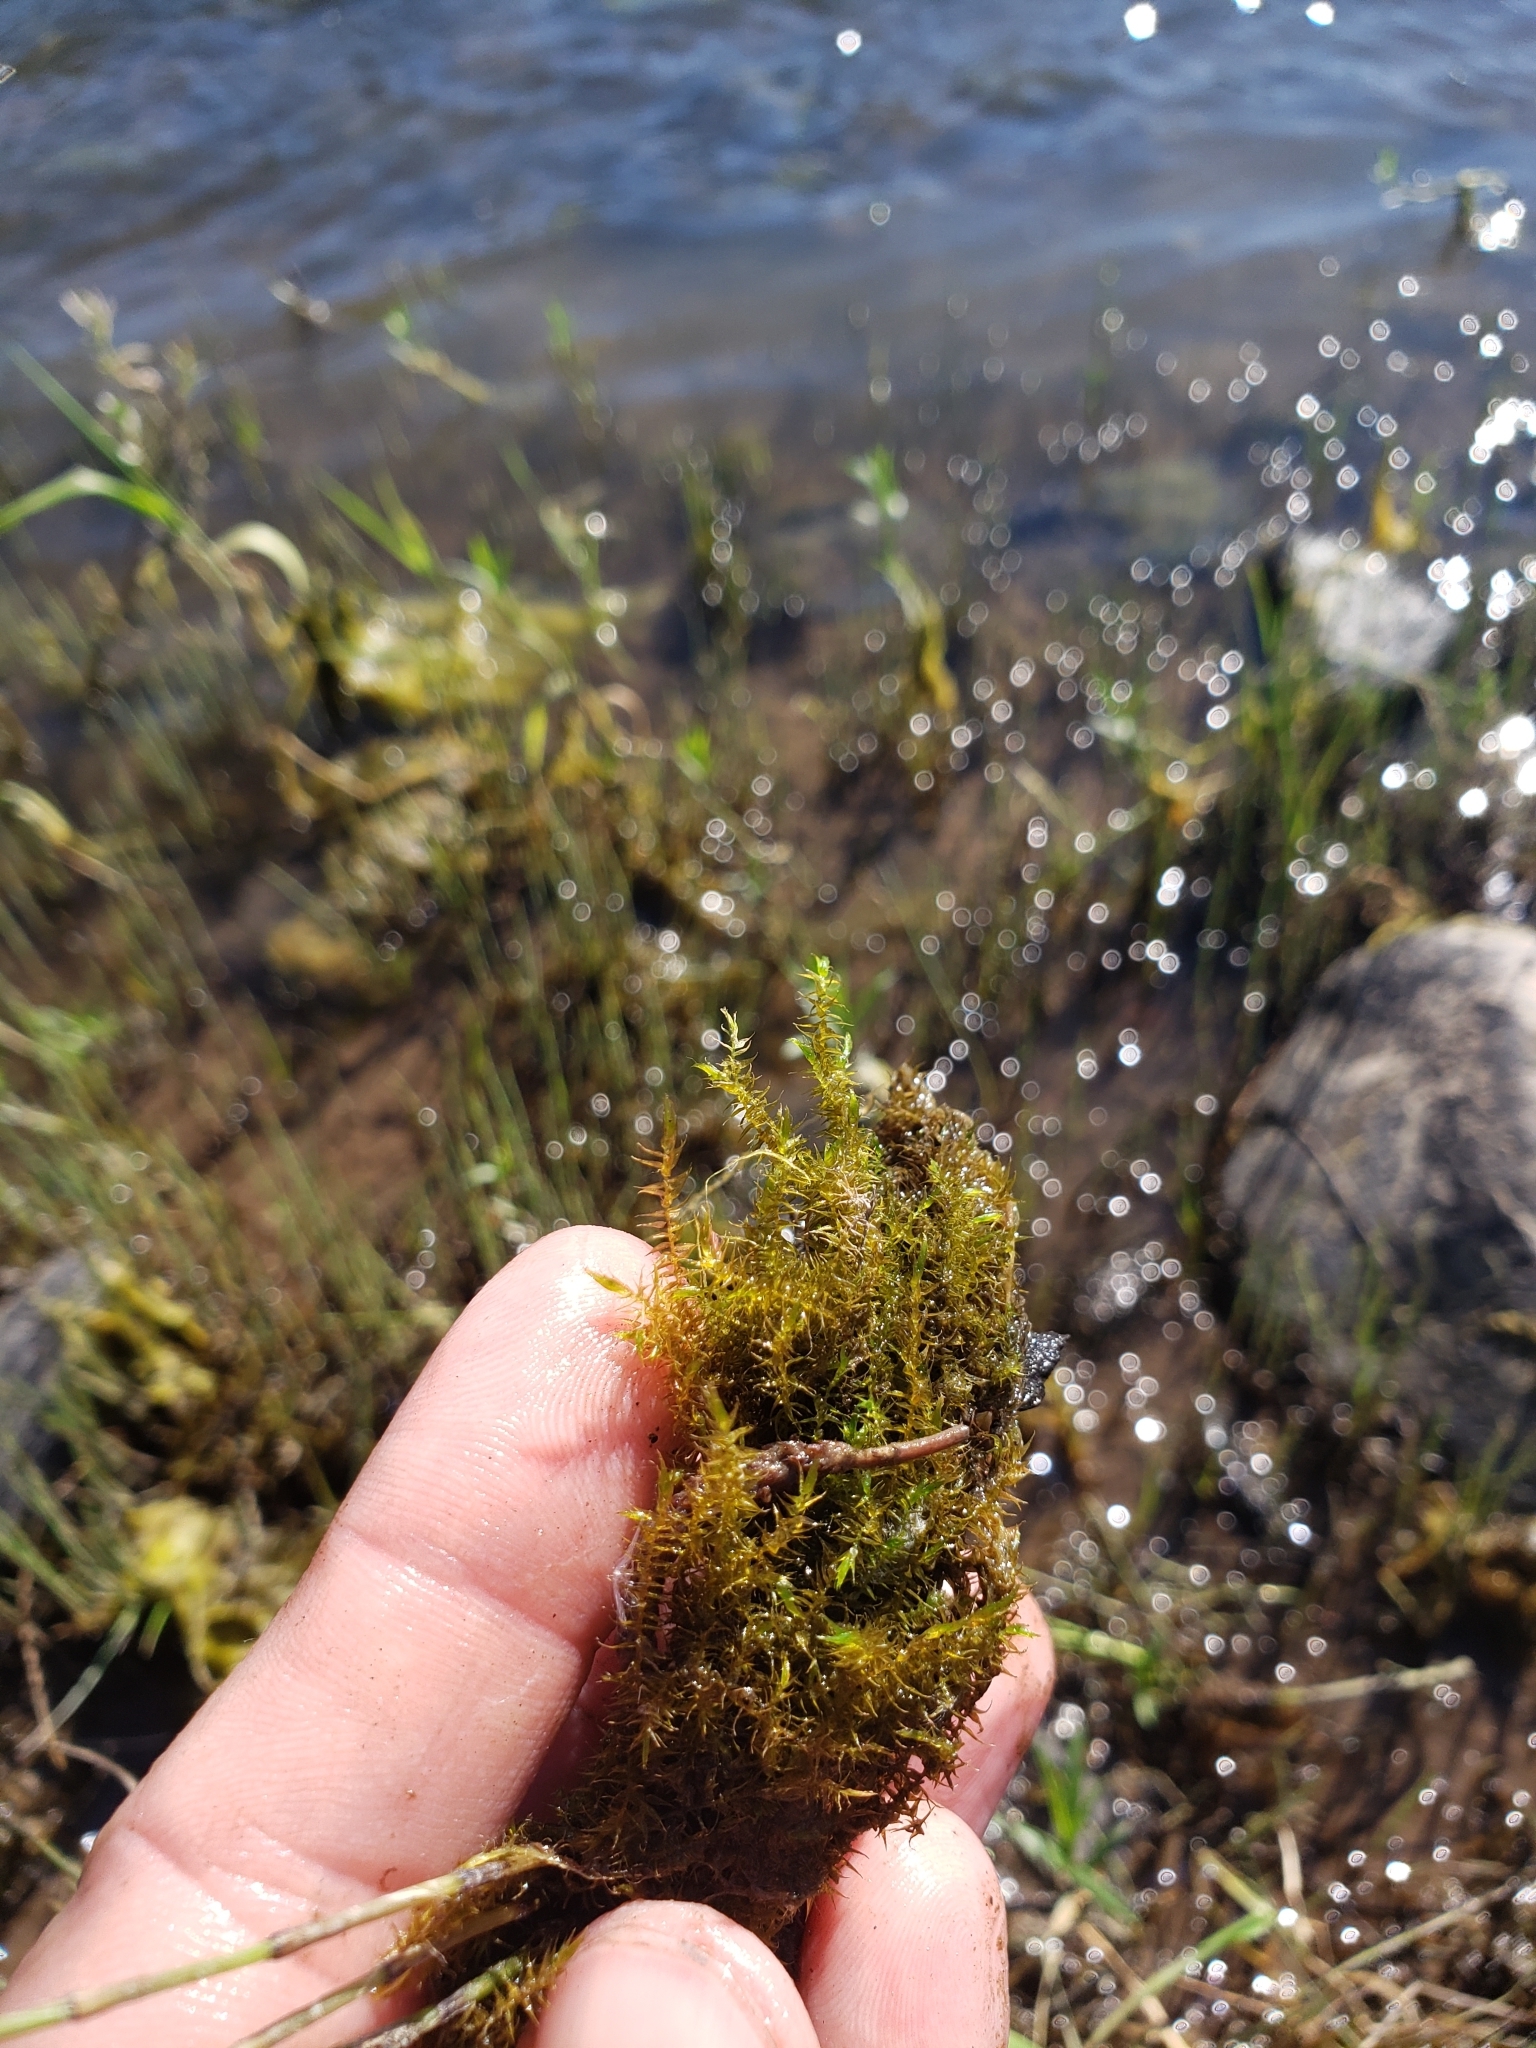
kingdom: Plantae
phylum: Bryophyta
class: Bryopsida
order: Hypnales
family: Amblystegiaceae
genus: Drepanocladus
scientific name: Drepanocladus aduncus
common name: Knieff's hook moss
